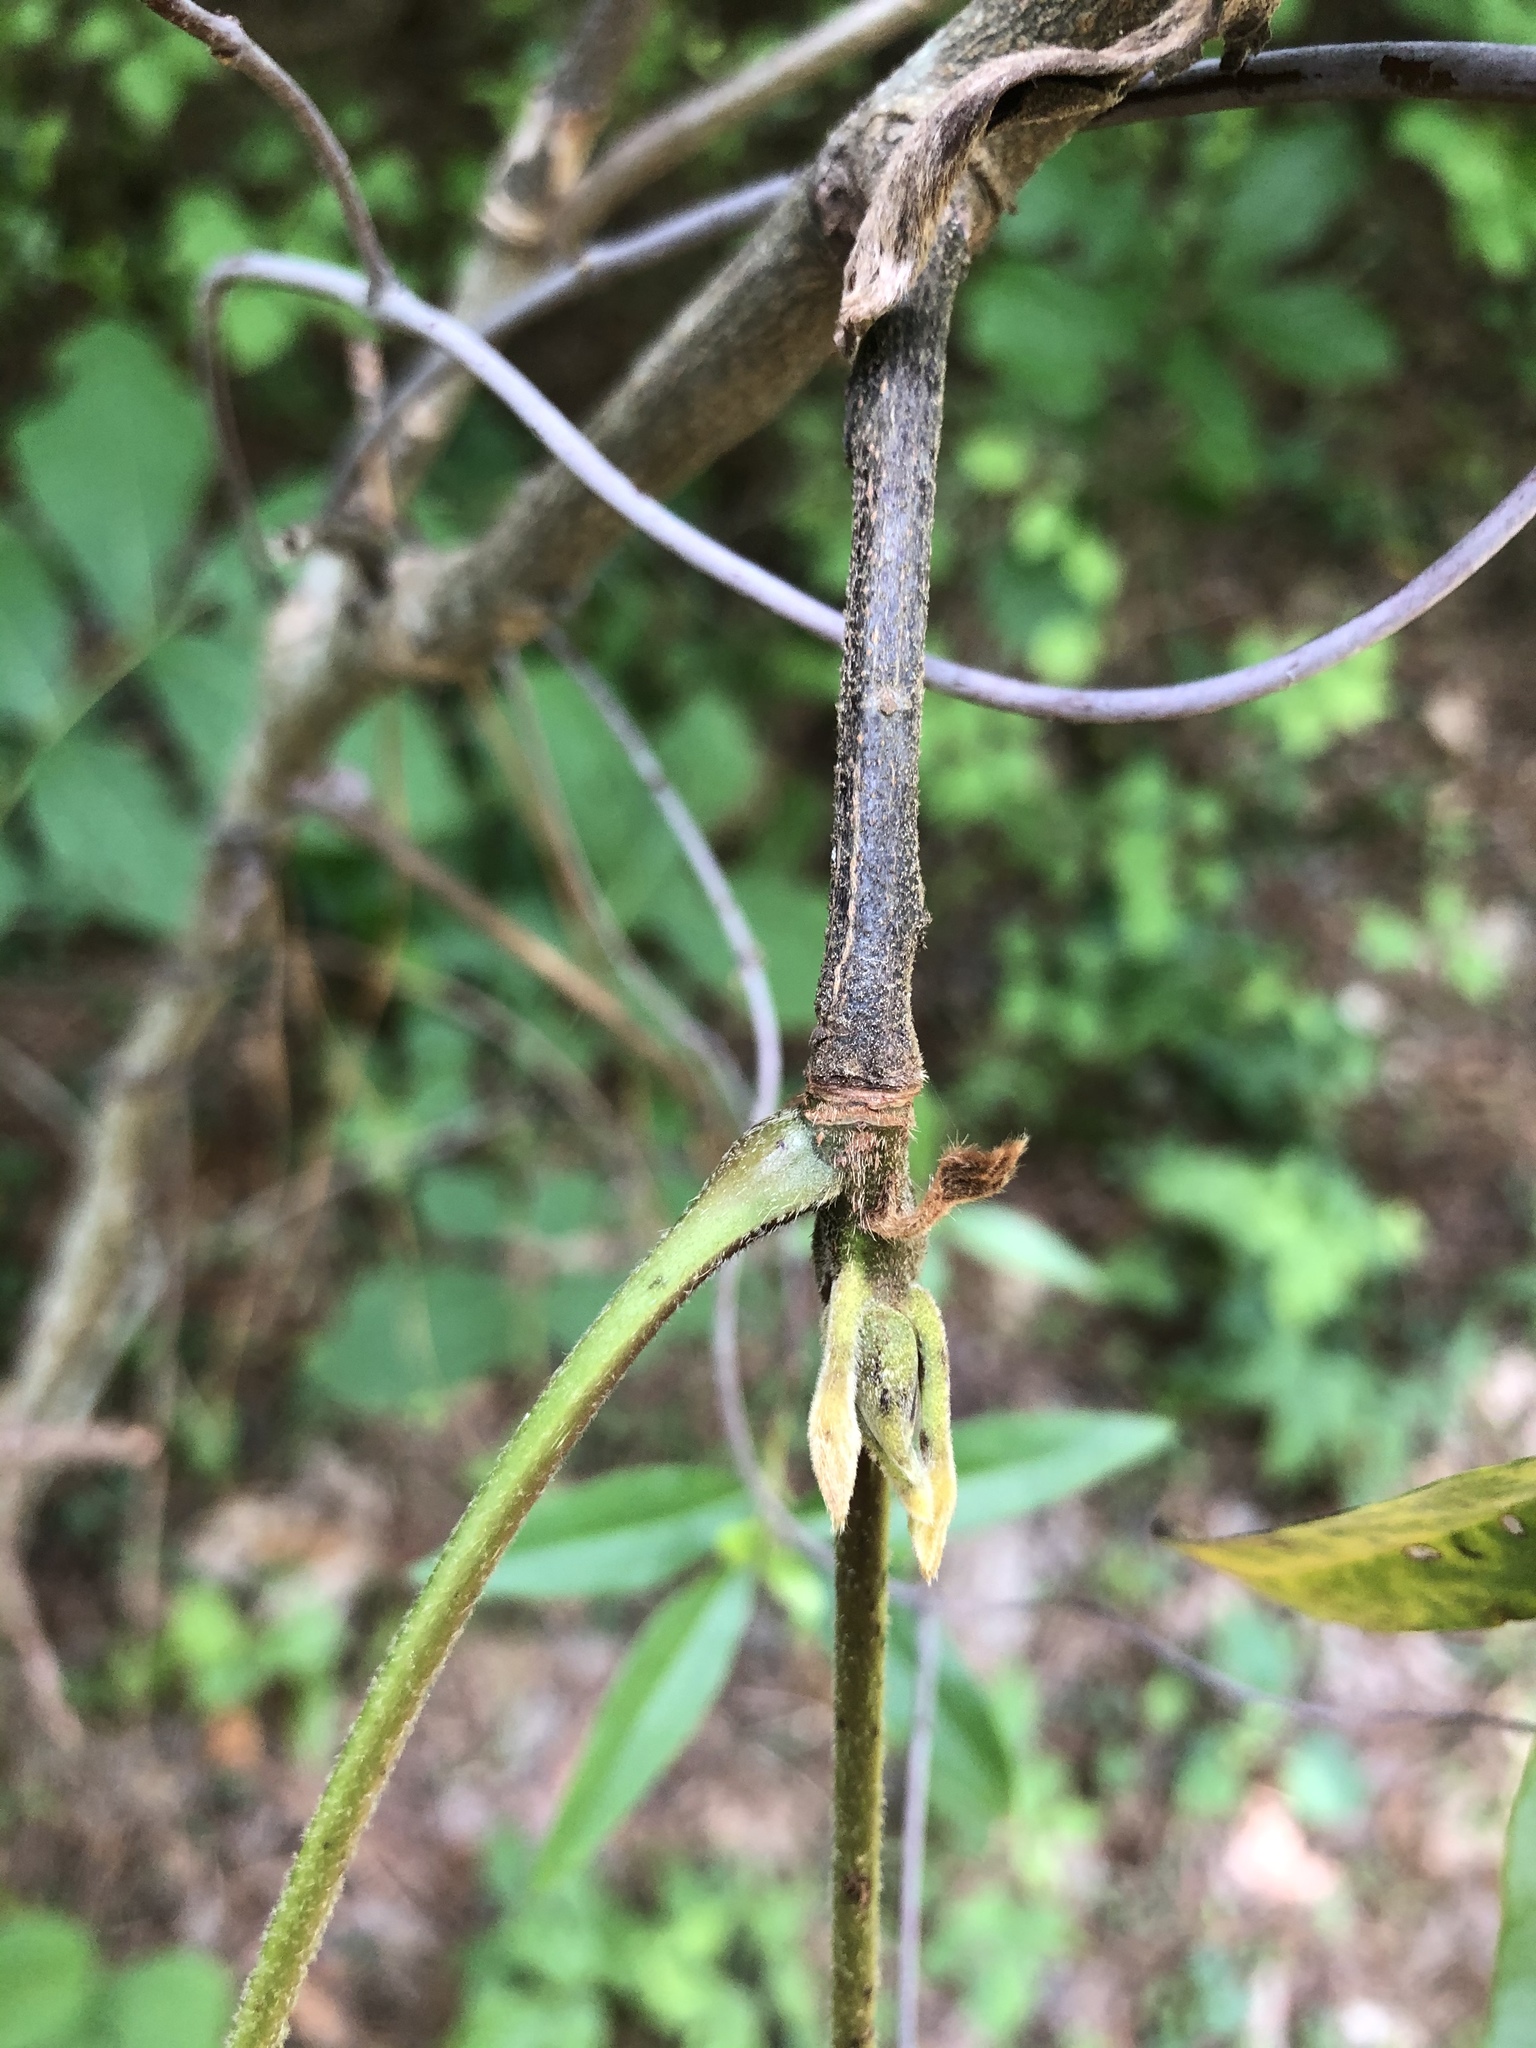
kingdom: Plantae
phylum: Tracheophyta
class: Magnoliopsida
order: Fagales
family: Juglandaceae
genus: Carya
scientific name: Carya alba
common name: Mockernut hickory
